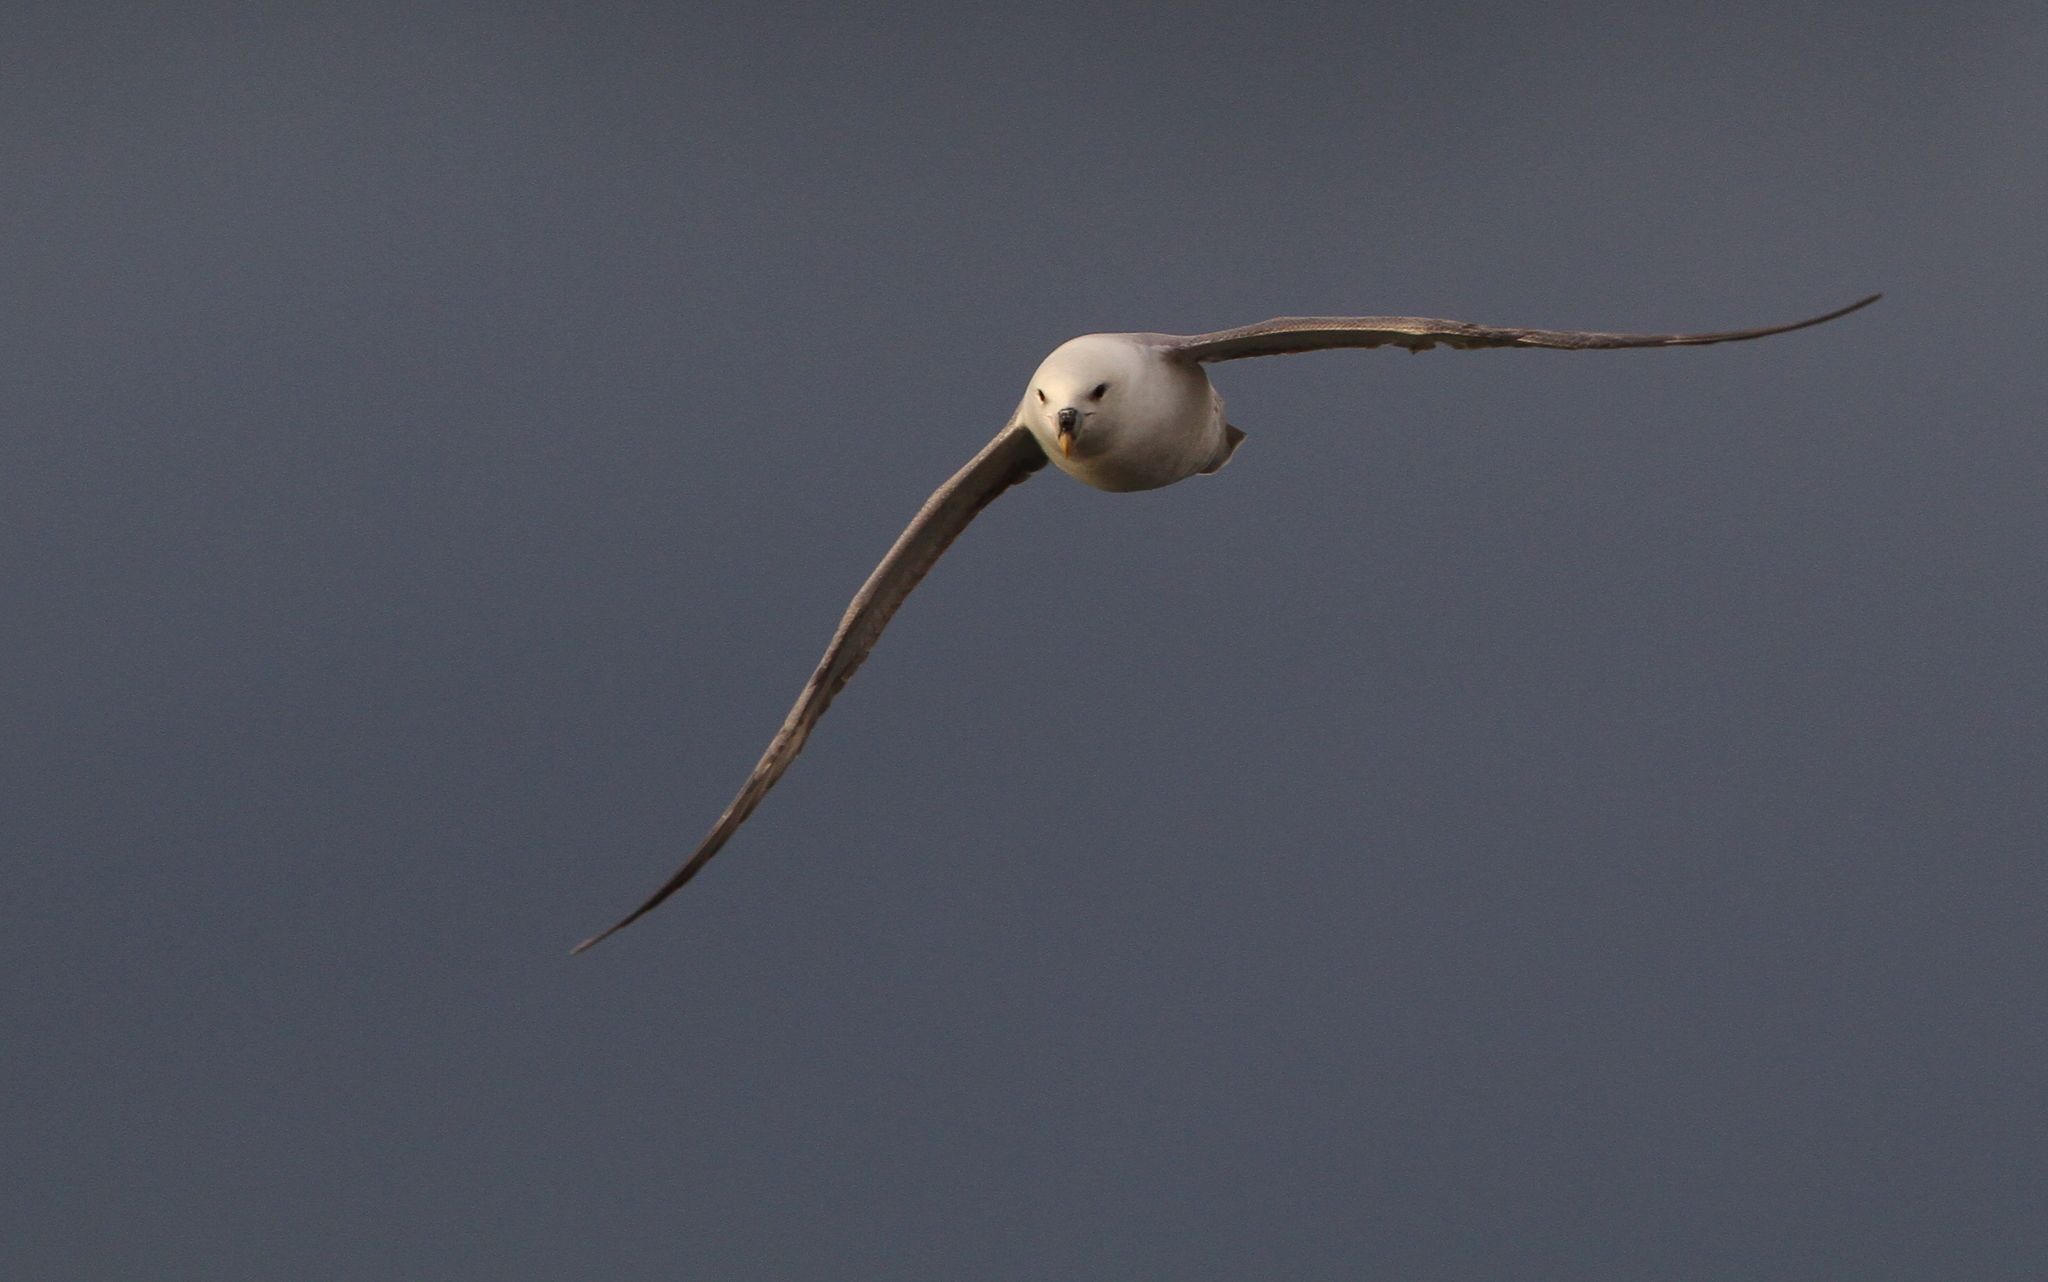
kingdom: Animalia
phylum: Chordata
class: Aves
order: Procellariiformes
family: Procellariidae
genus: Fulmarus
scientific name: Fulmarus glacialis
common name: Northern fulmar
